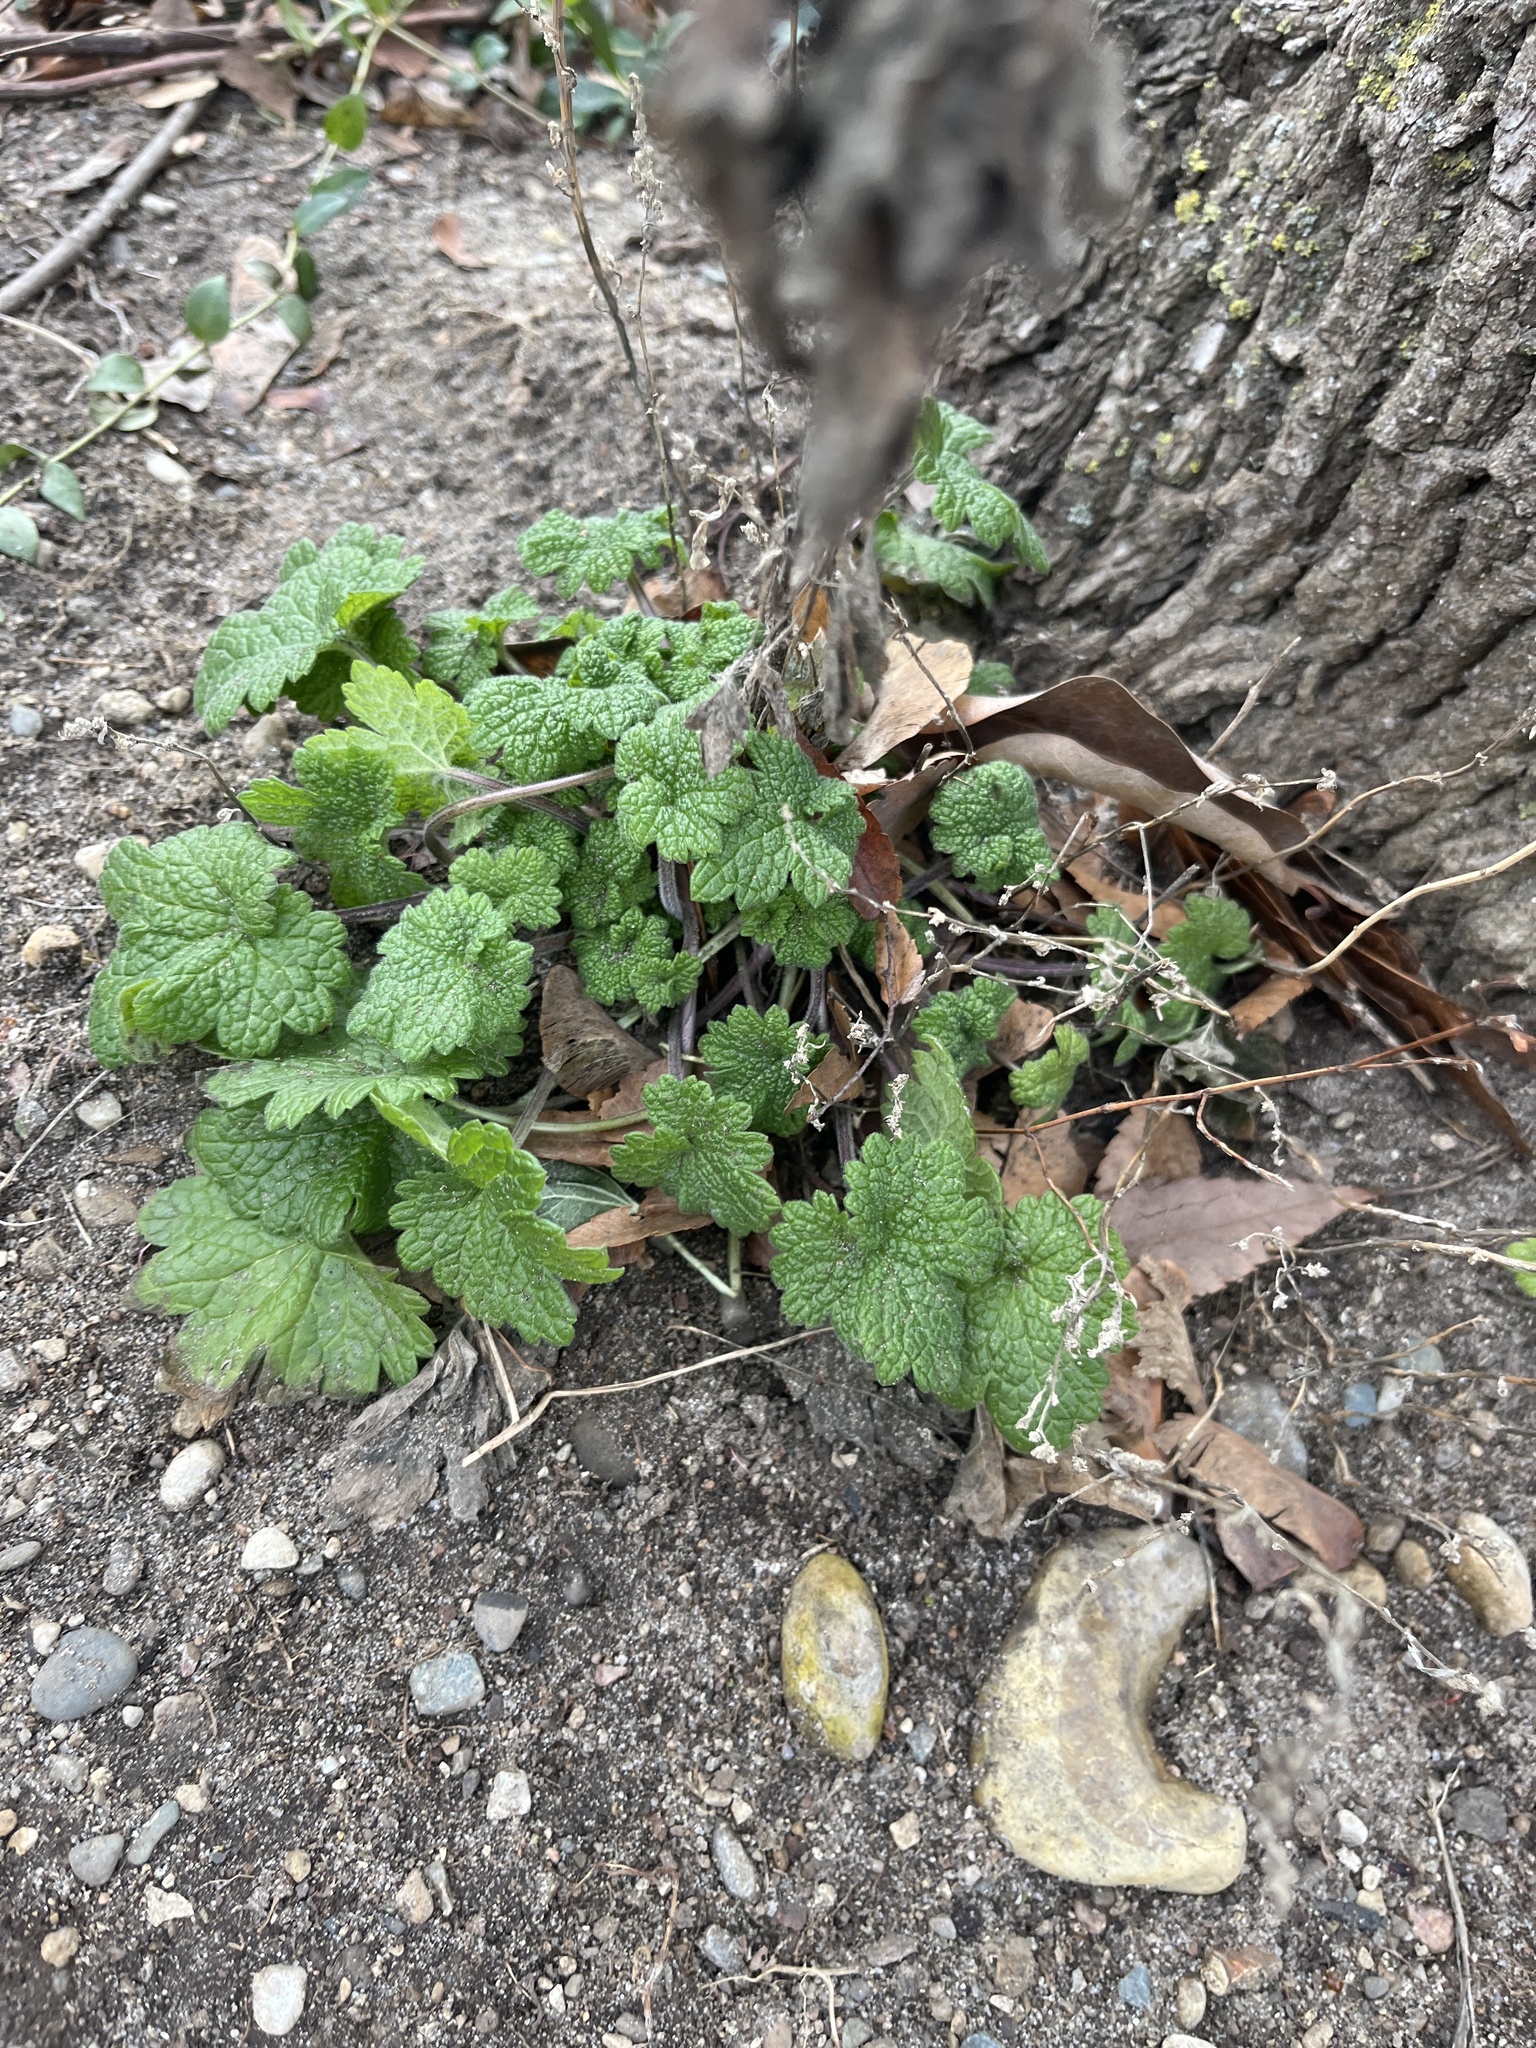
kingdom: Plantae
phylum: Tracheophyta
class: Magnoliopsida
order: Lamiales
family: Lamiaceae
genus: Leonurus
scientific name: Leonurus cardiaca
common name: Motherwort
